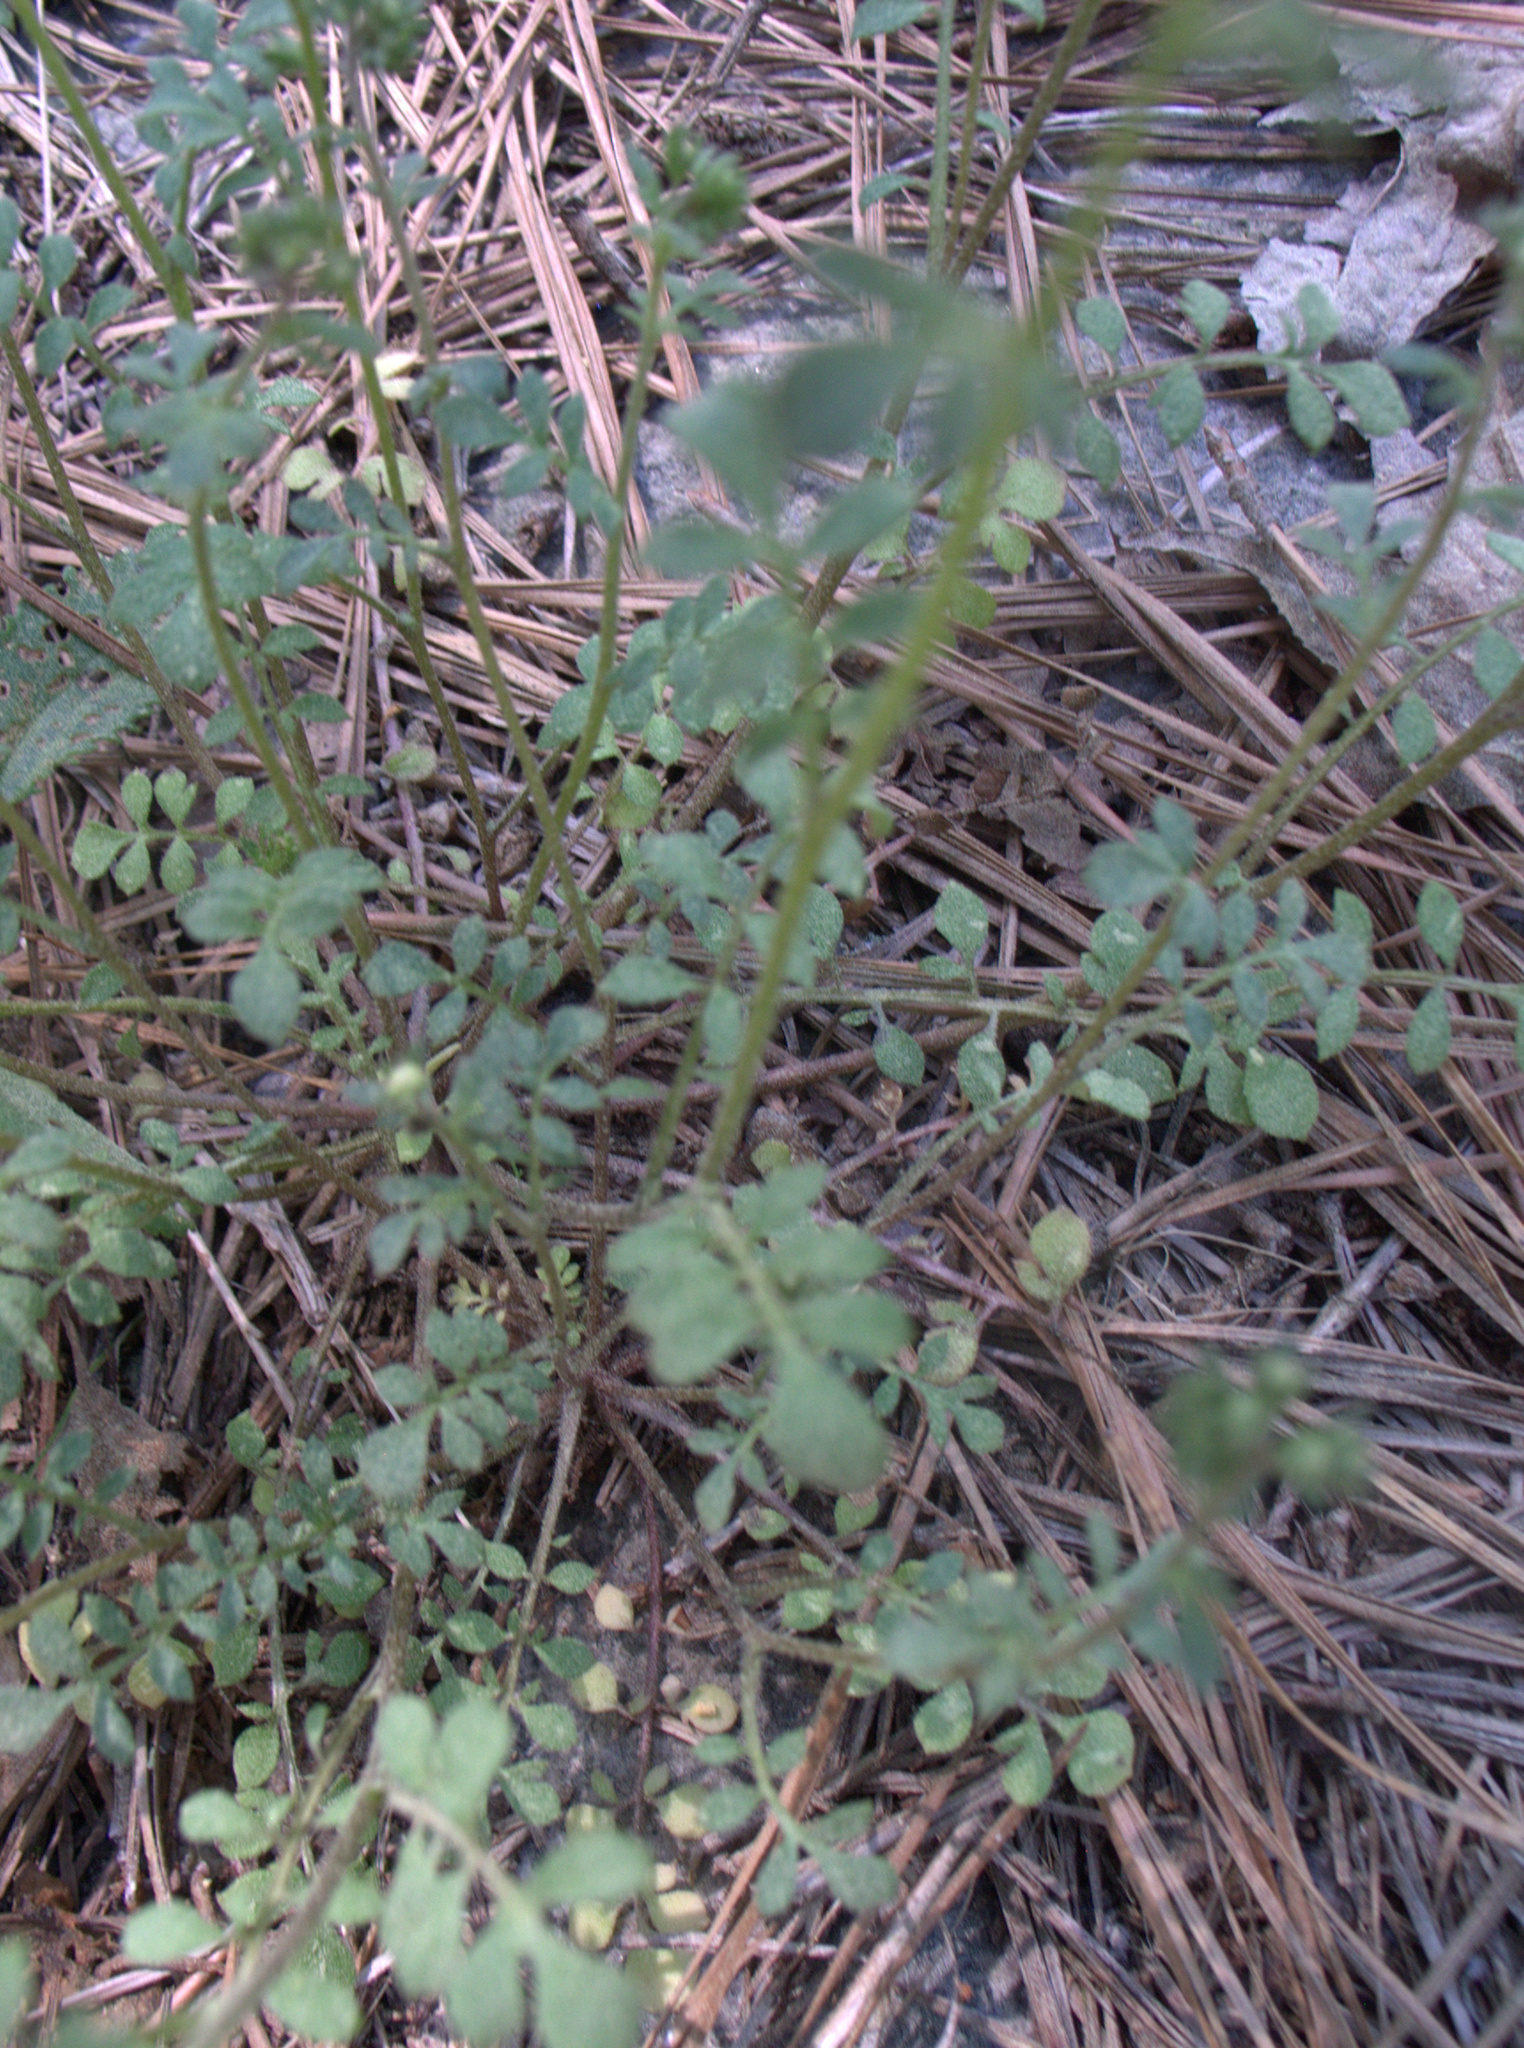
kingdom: Plantae
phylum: Tracheophyta
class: Magnoliopsida
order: Boraginales
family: Hydrophyllaceae
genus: Phacelia
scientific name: Phacelia dubia
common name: Appalachian phacelia
